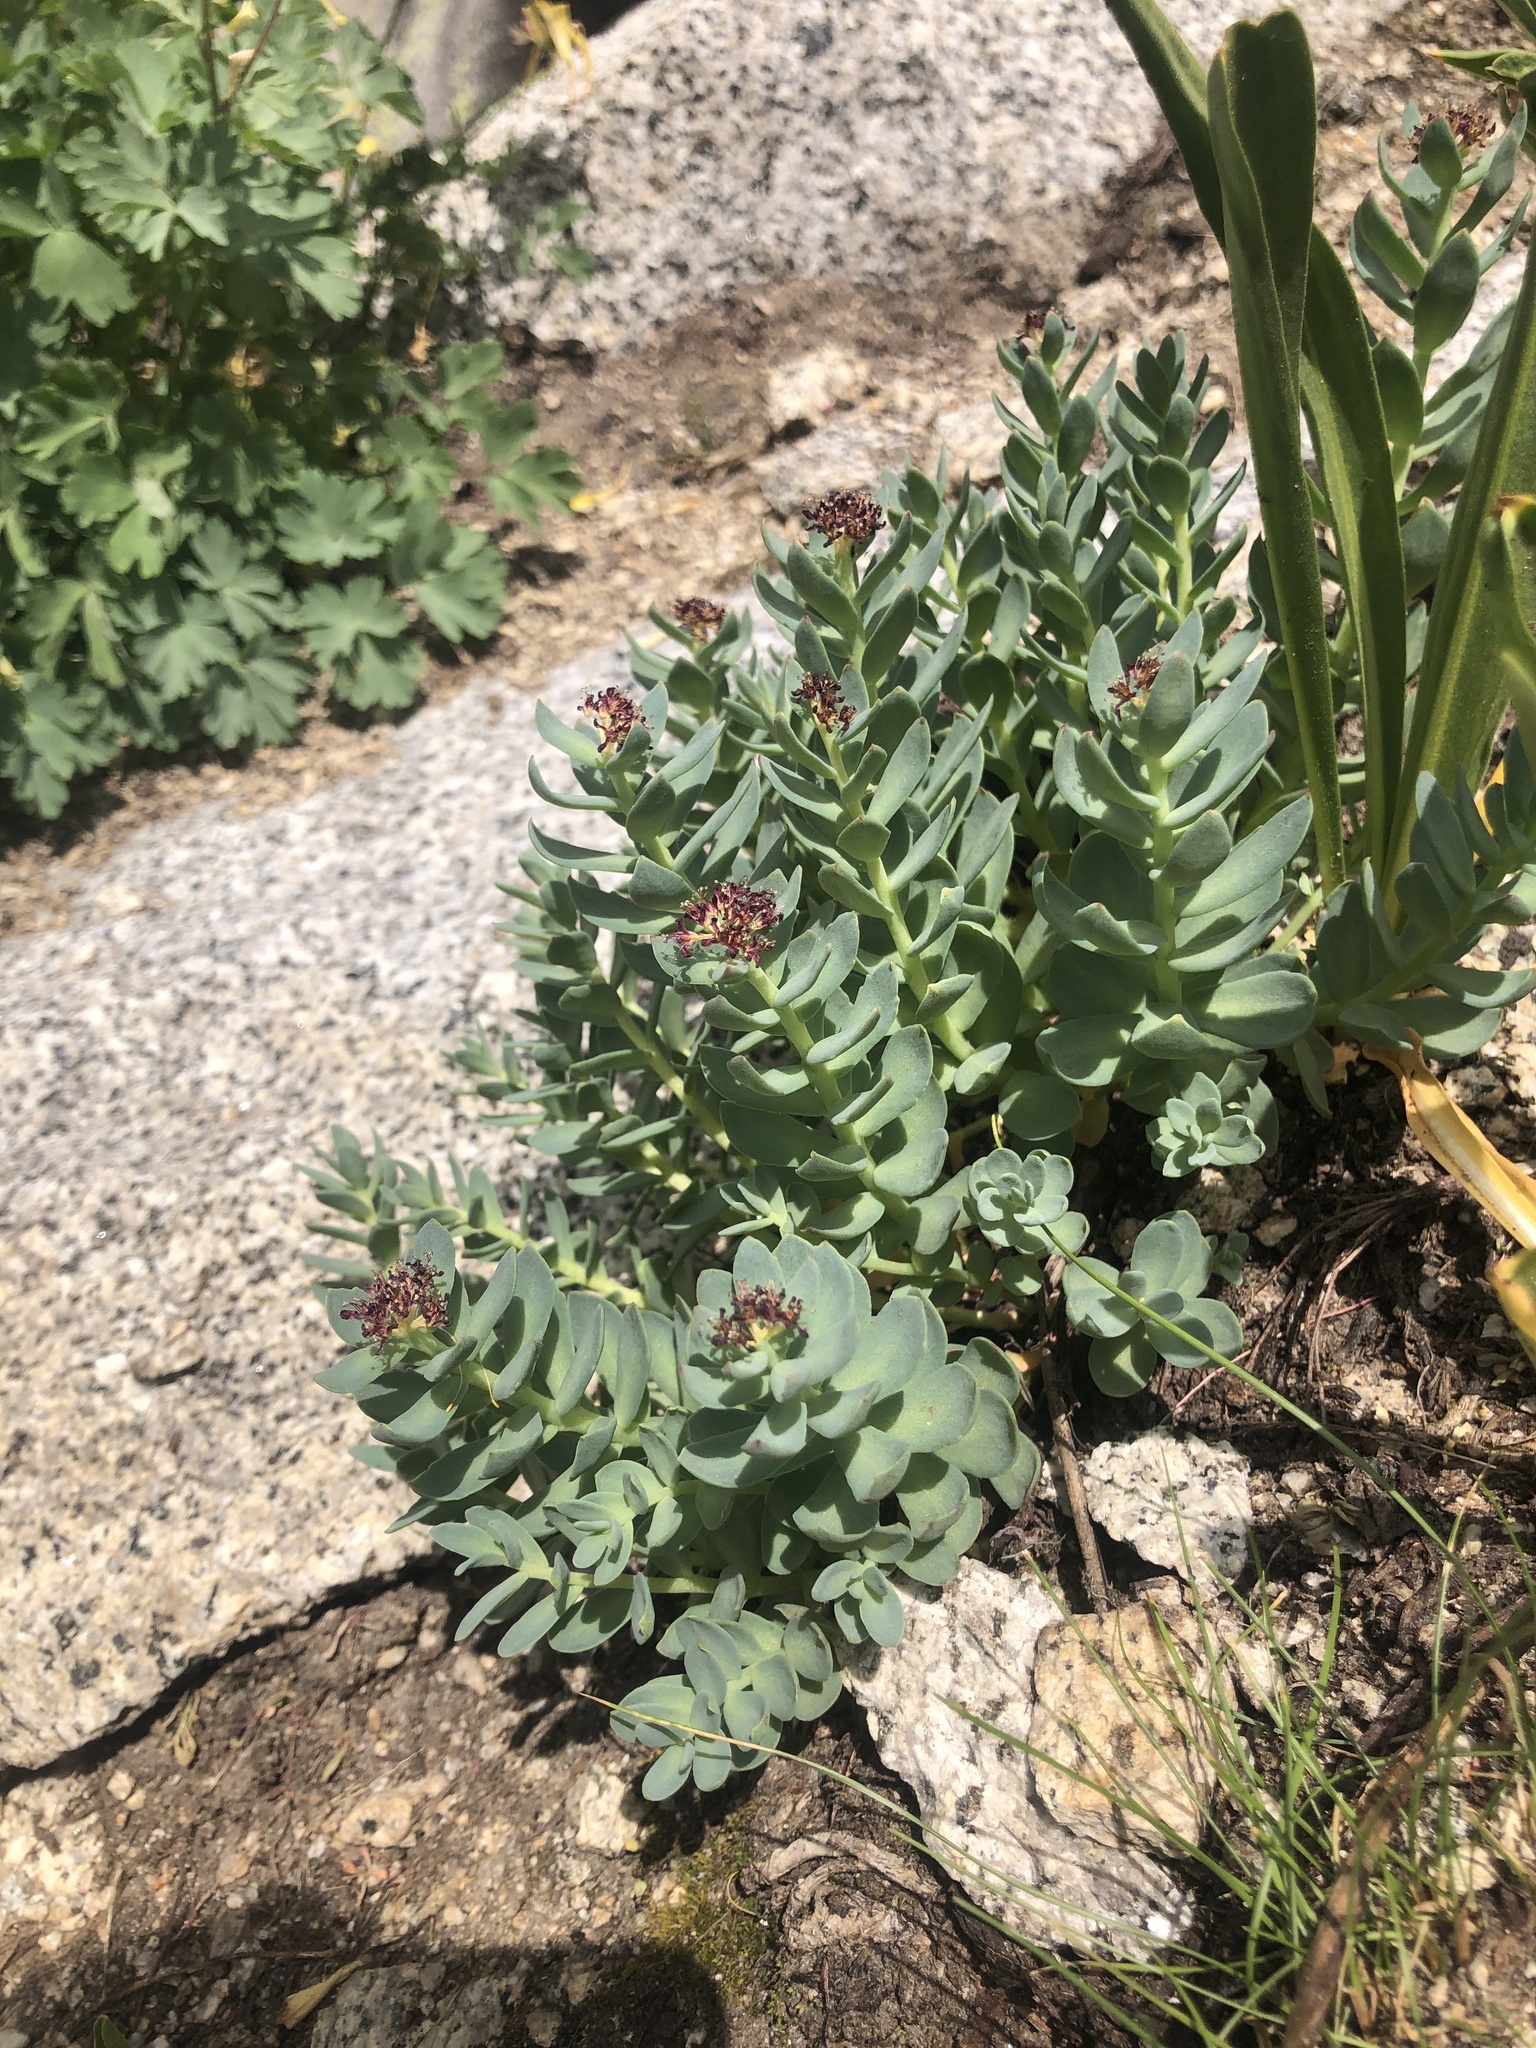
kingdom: Plantae
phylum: Tracheophyta
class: Magnoliopsida
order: Saxifragales
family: Crassulaceae
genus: Rhodiola
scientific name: Rhodiola integrifolia
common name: Western roseroot
